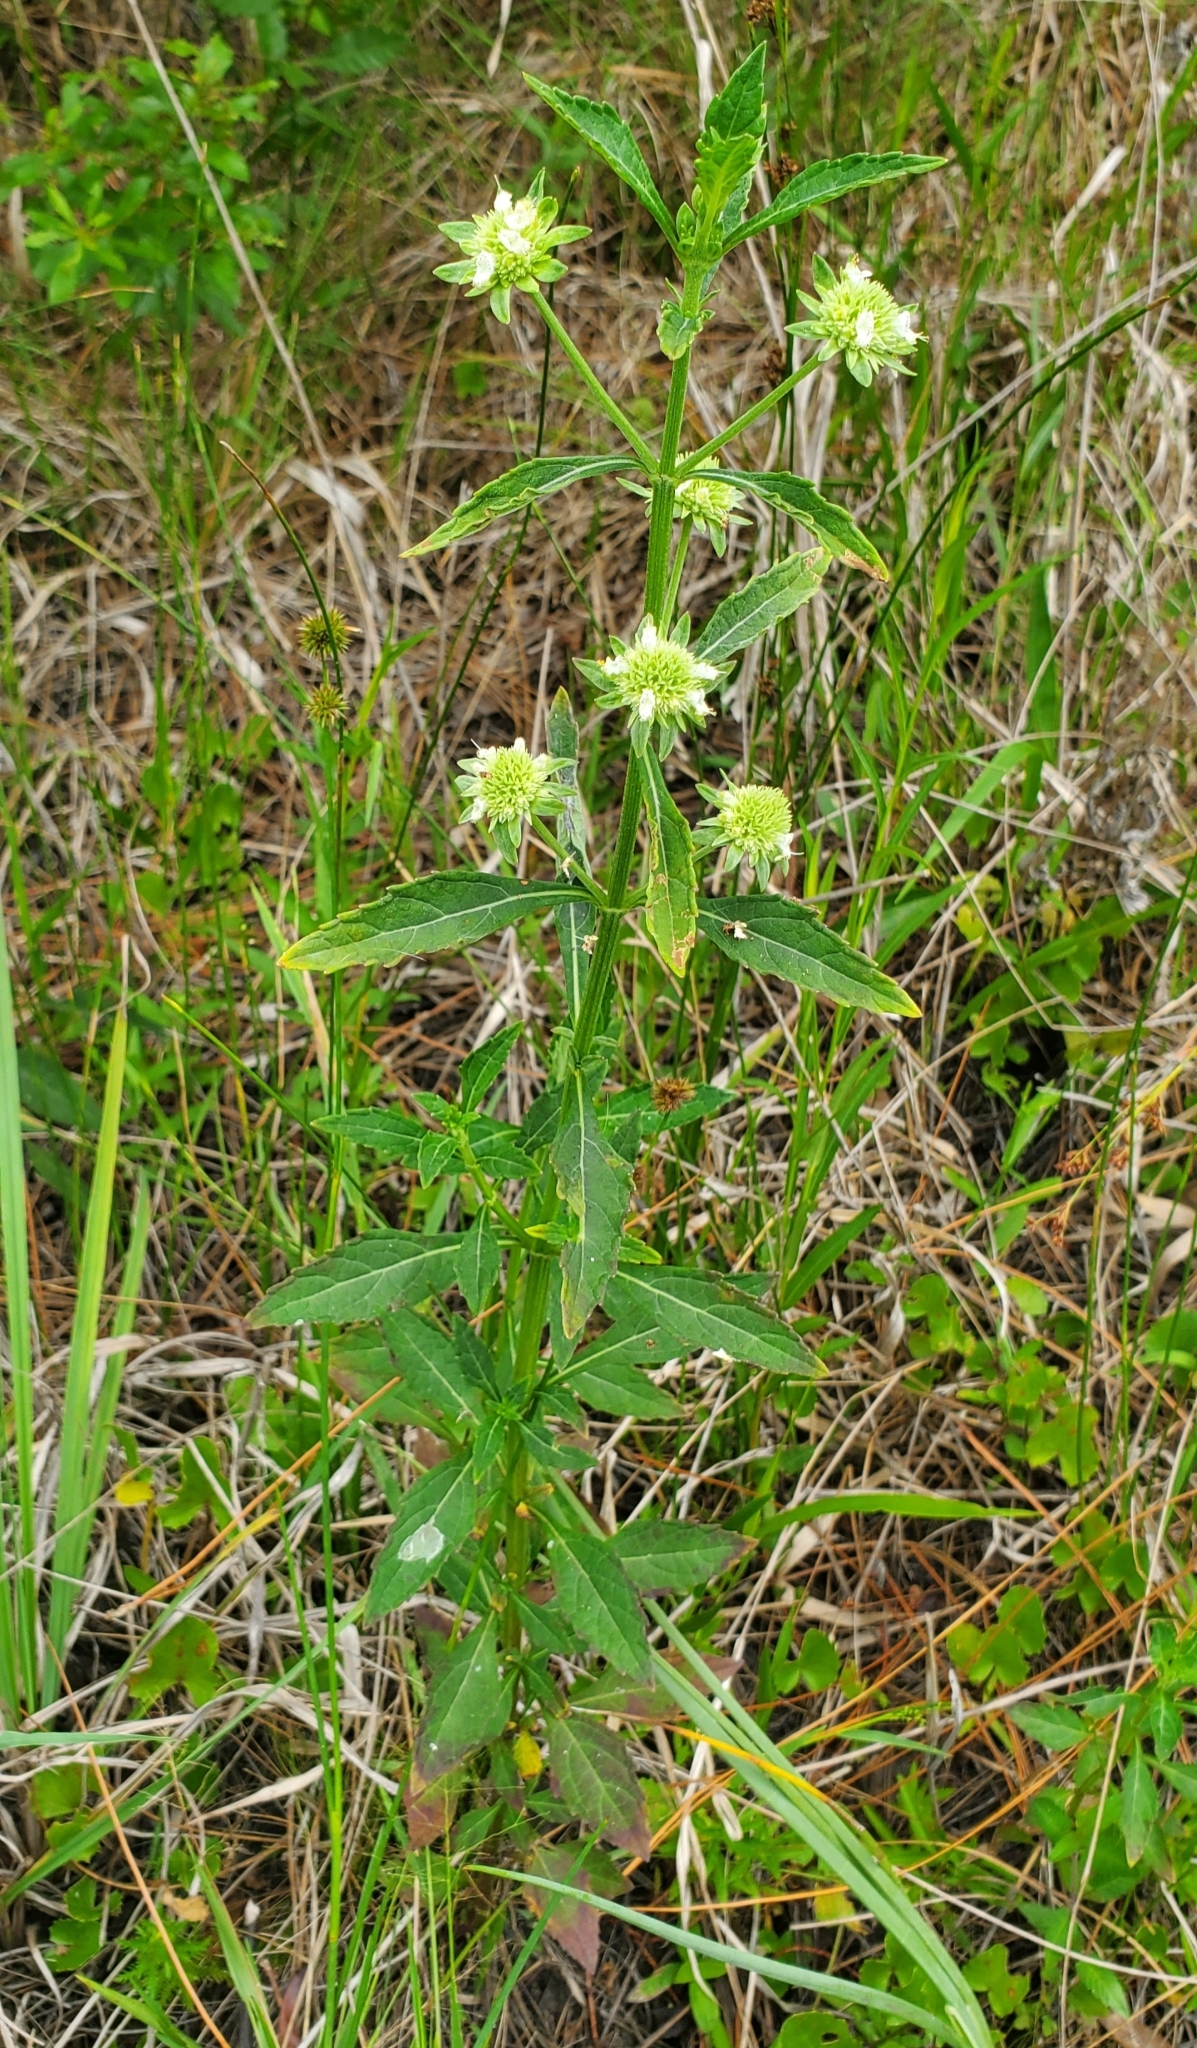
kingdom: Plantae
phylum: Tracheophyta
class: Magnoliopsida
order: Lamiales
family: Lamiaceae
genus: Hyptis
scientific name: Hyptis alata
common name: Cluster bush-mint
